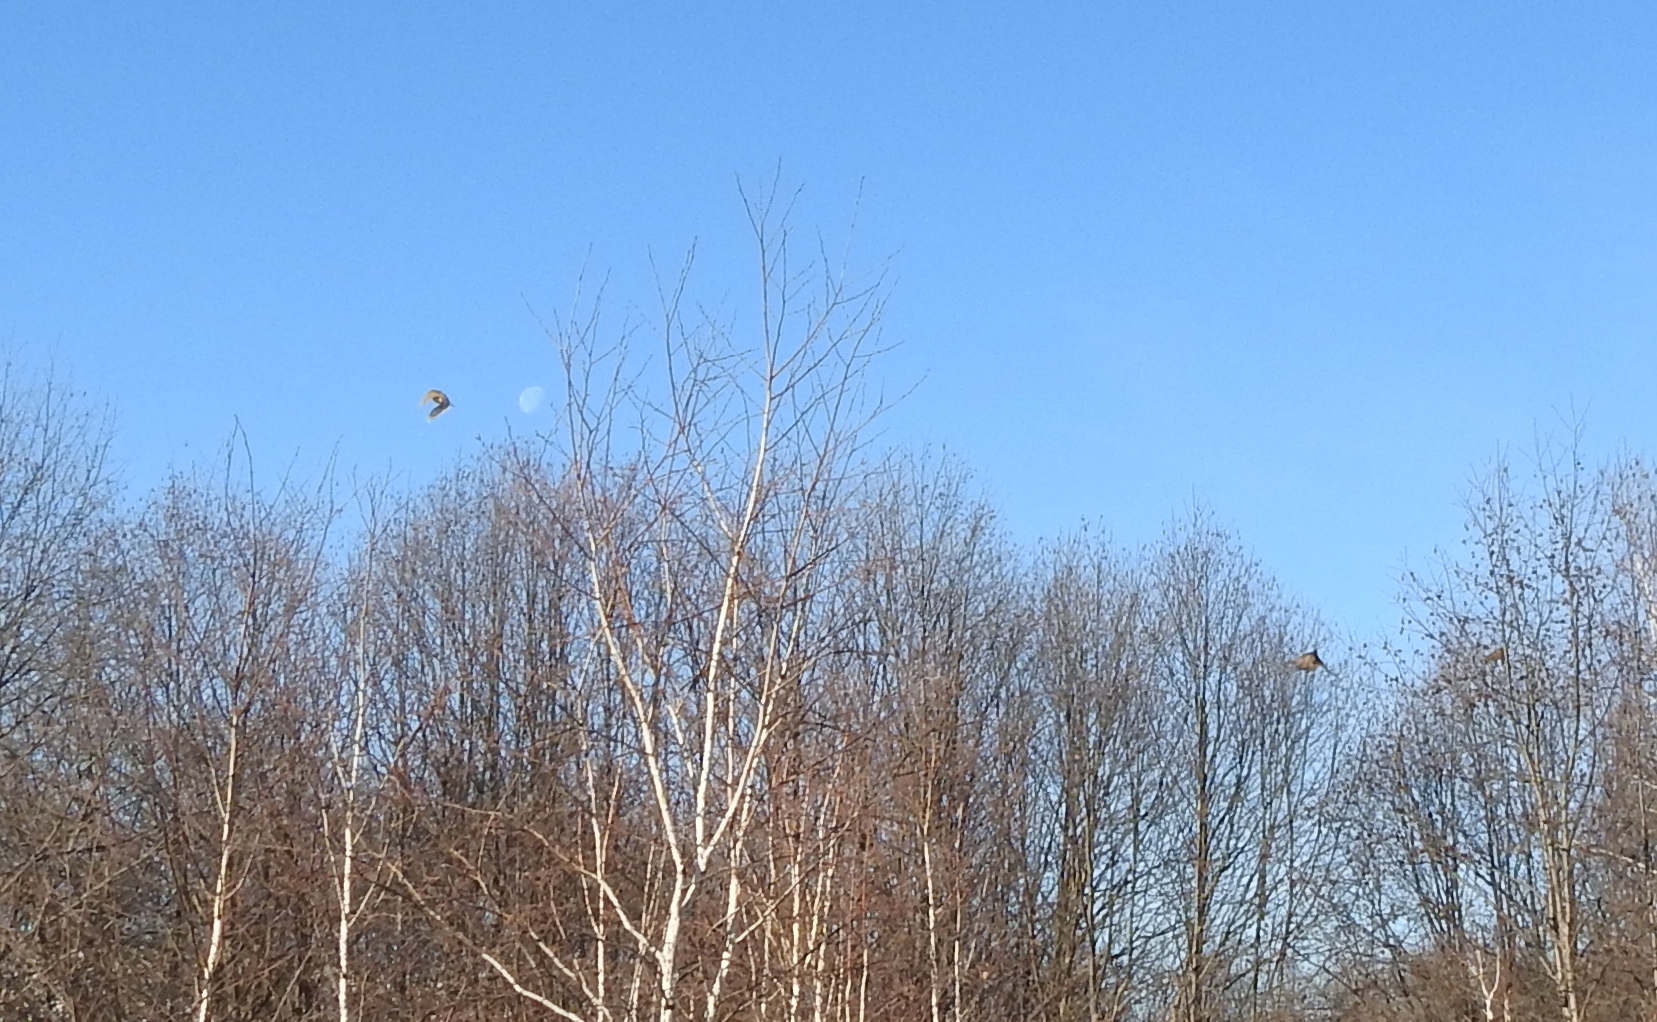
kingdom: Animalia
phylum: Chordata
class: Aves
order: Galliformes
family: Phasianidae
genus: Phasianus
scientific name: Phasianus colchicus
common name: Common pheasant
